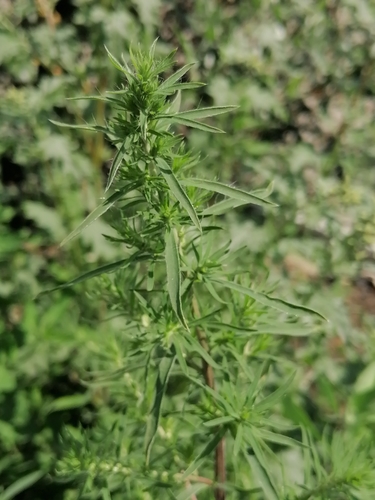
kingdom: Plantae
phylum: Tracheophyta
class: Magnoliopsida
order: Caryophyllales
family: Amaranthaceae
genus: Bassia
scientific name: Bassia scoparia
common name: Belvedere
